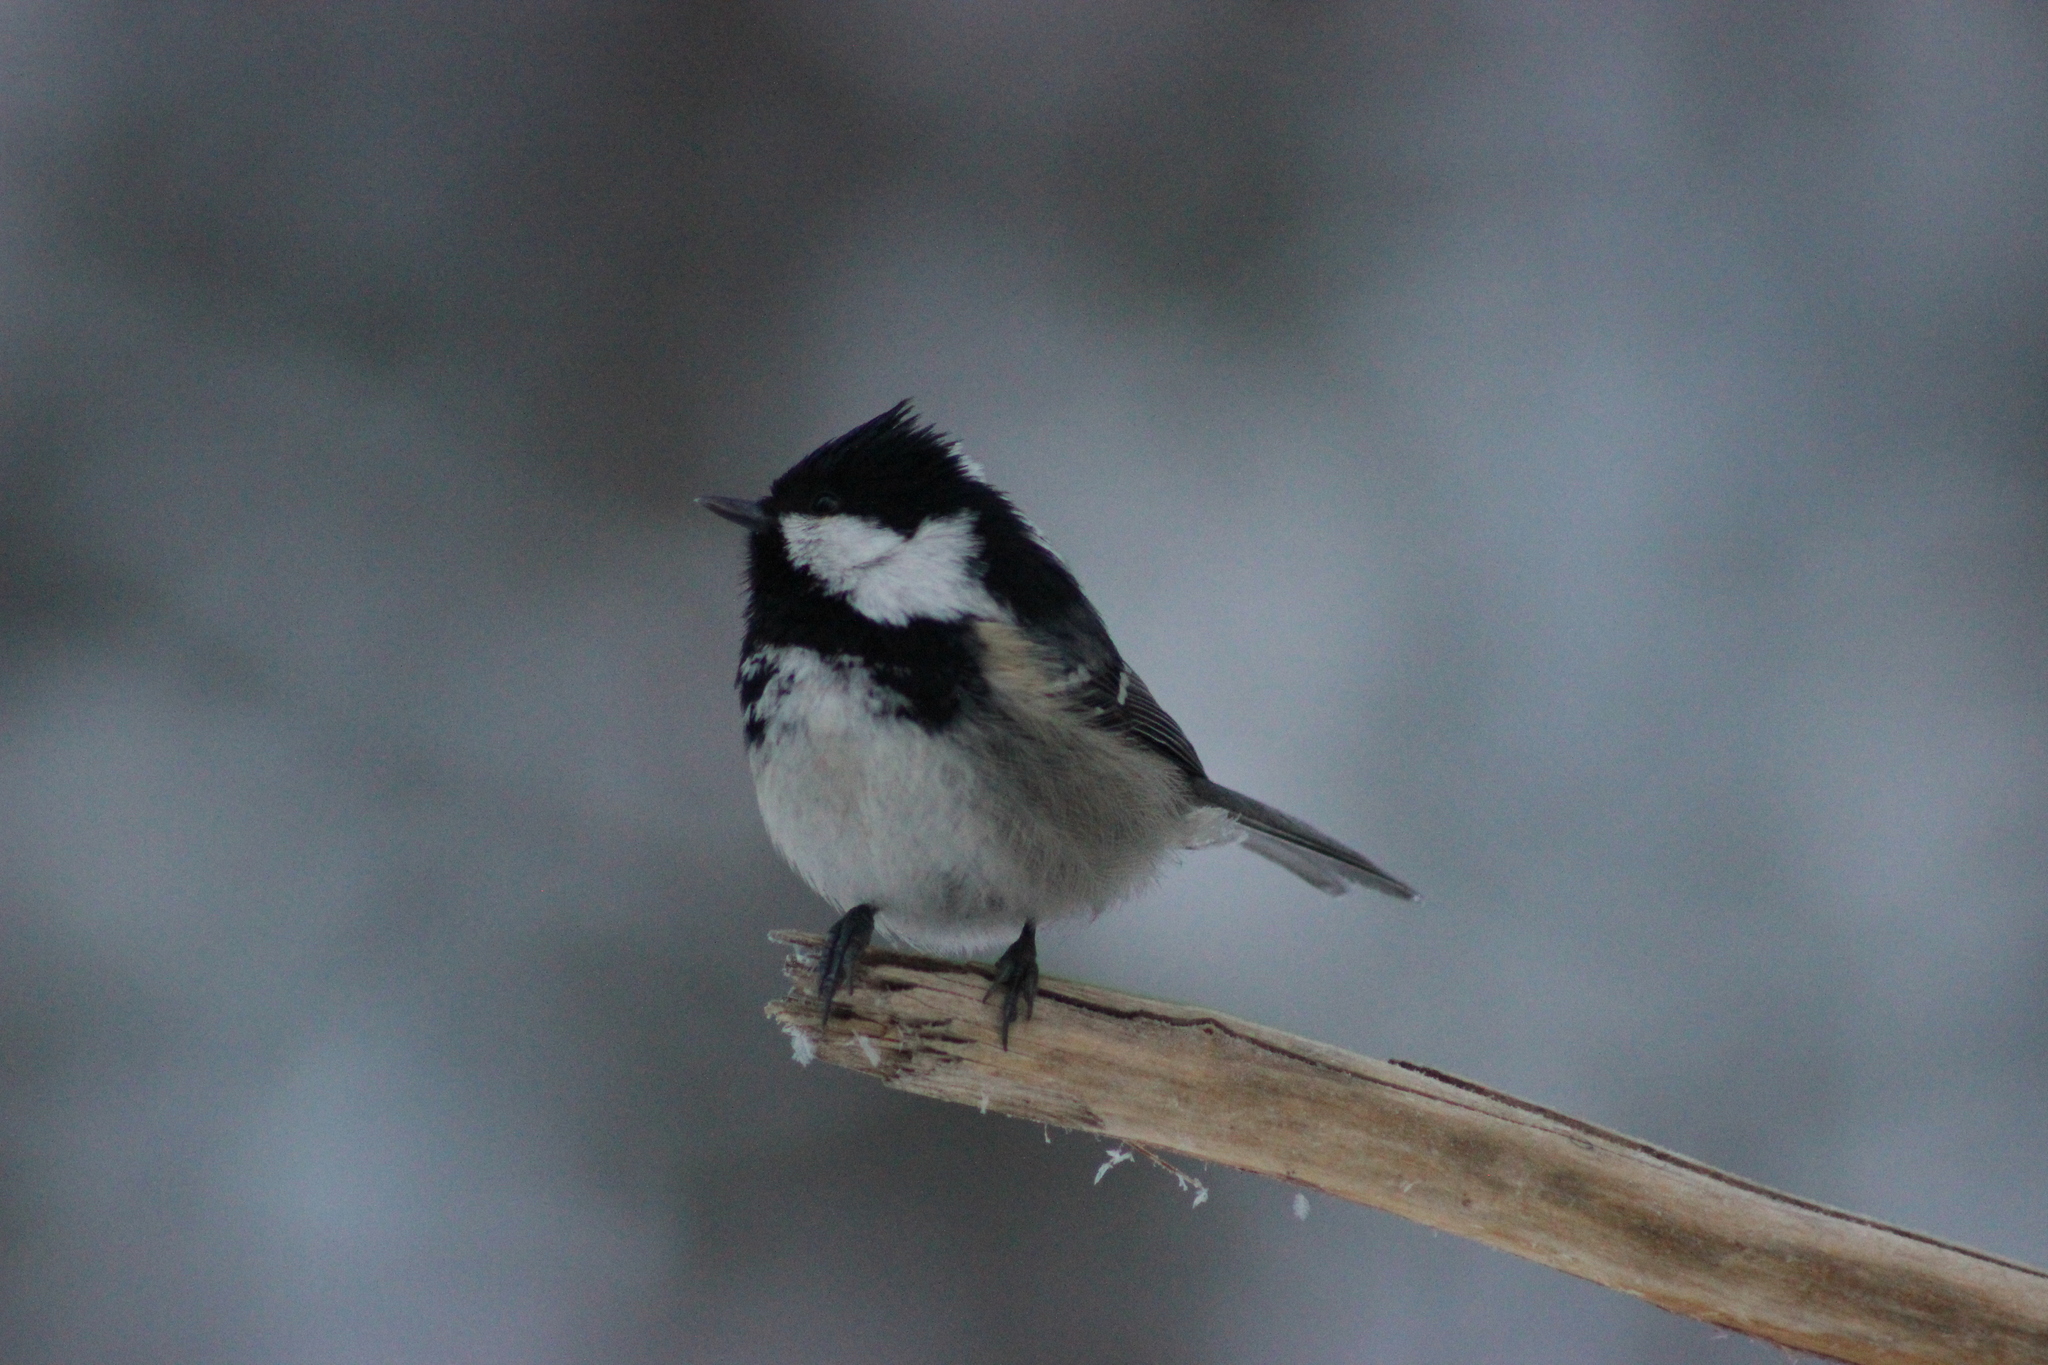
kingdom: Animalia
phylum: Chordata
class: Aves
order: Passeriformes
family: Paridae
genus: Periparus
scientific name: Periparus ater
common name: Coal tit
